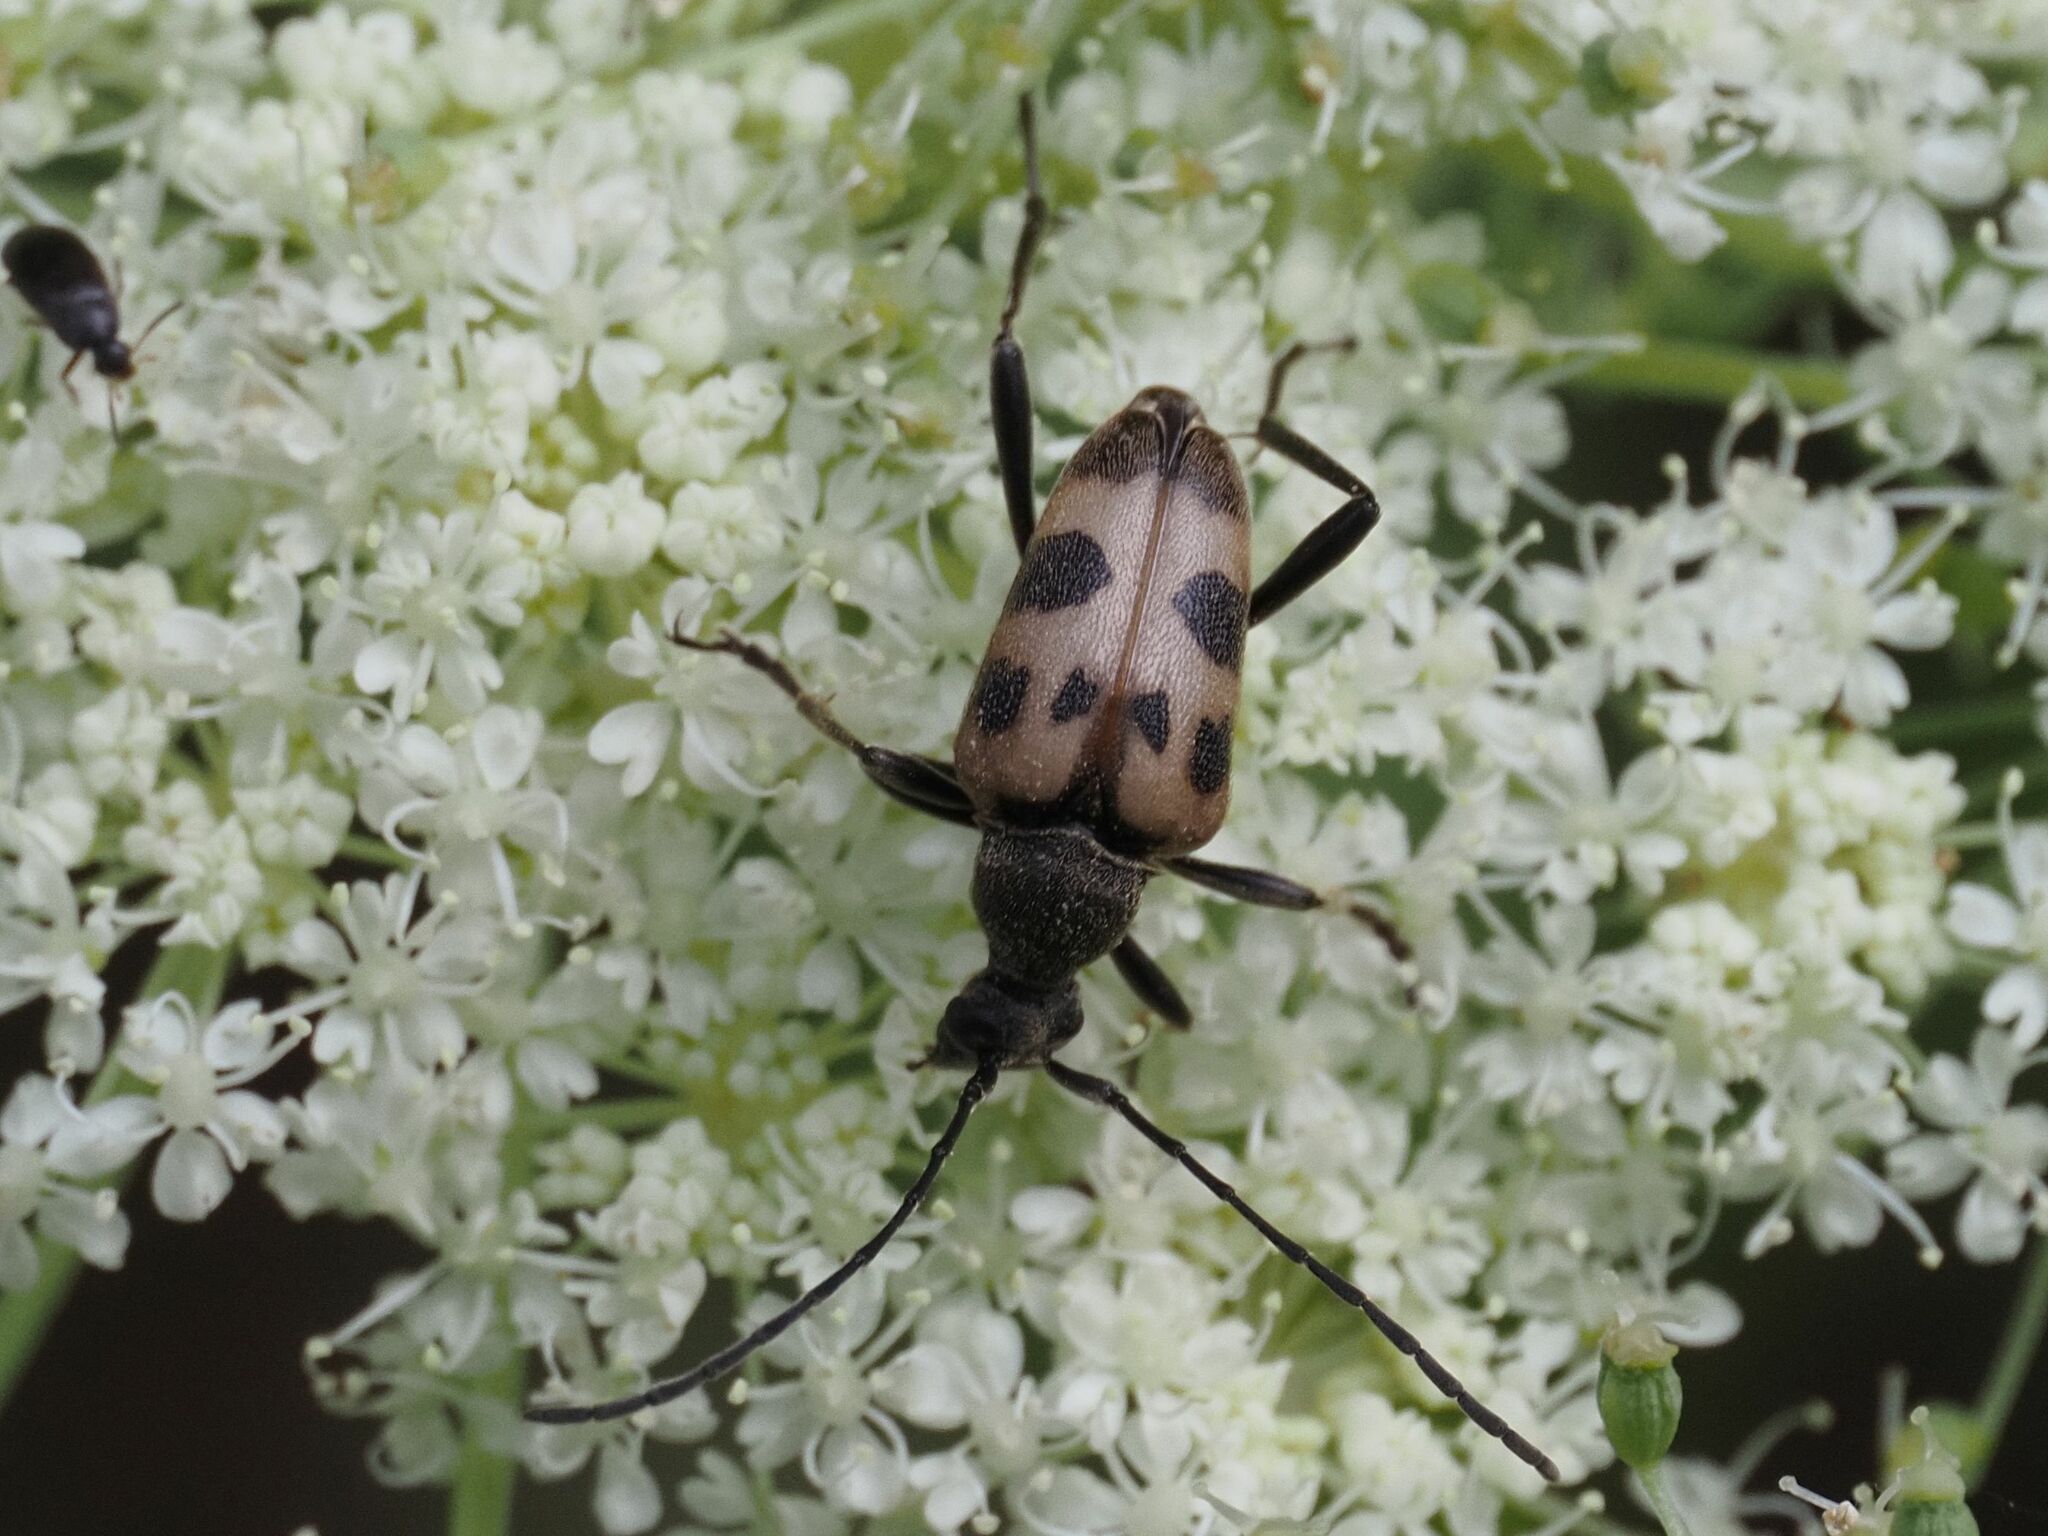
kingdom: Animalia
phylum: Arthropoda
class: Insecta
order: Coleoptera
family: Cerambycidae
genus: Pachytodes
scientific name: Pachytodes cerambyciformis
